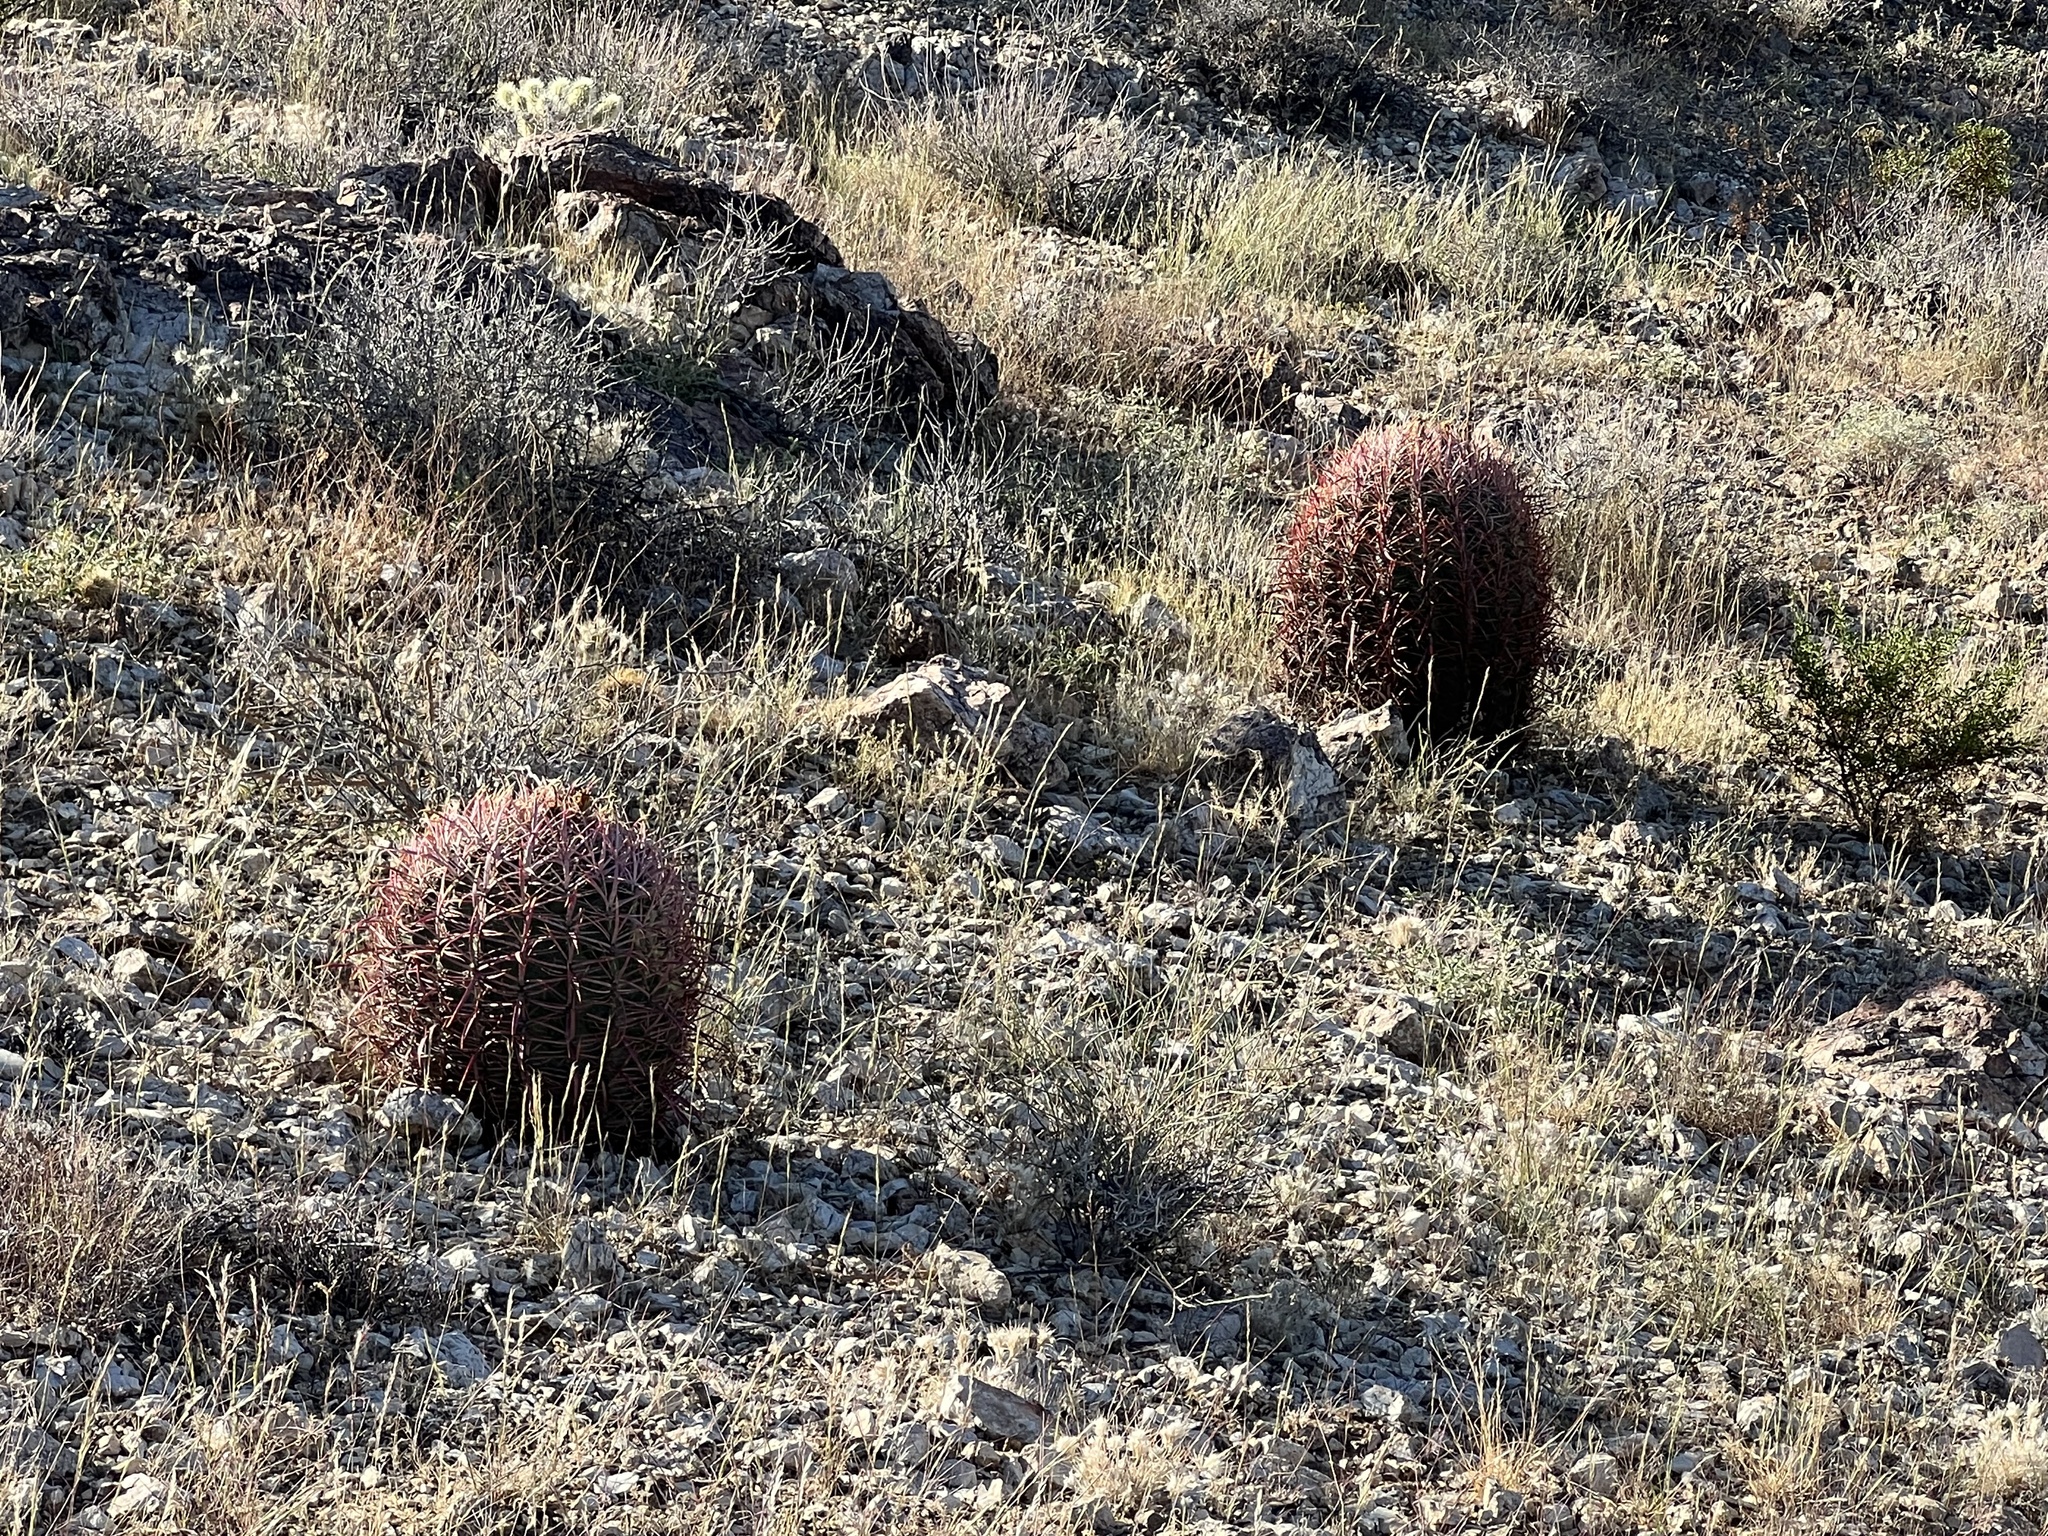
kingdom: Plantae
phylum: Tracheophyta
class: Magnoliopsida
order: Caryophyllales
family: Cactaceae
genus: Ferocactus
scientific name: Ferocactus cylindraceus
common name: California barrel cactus
